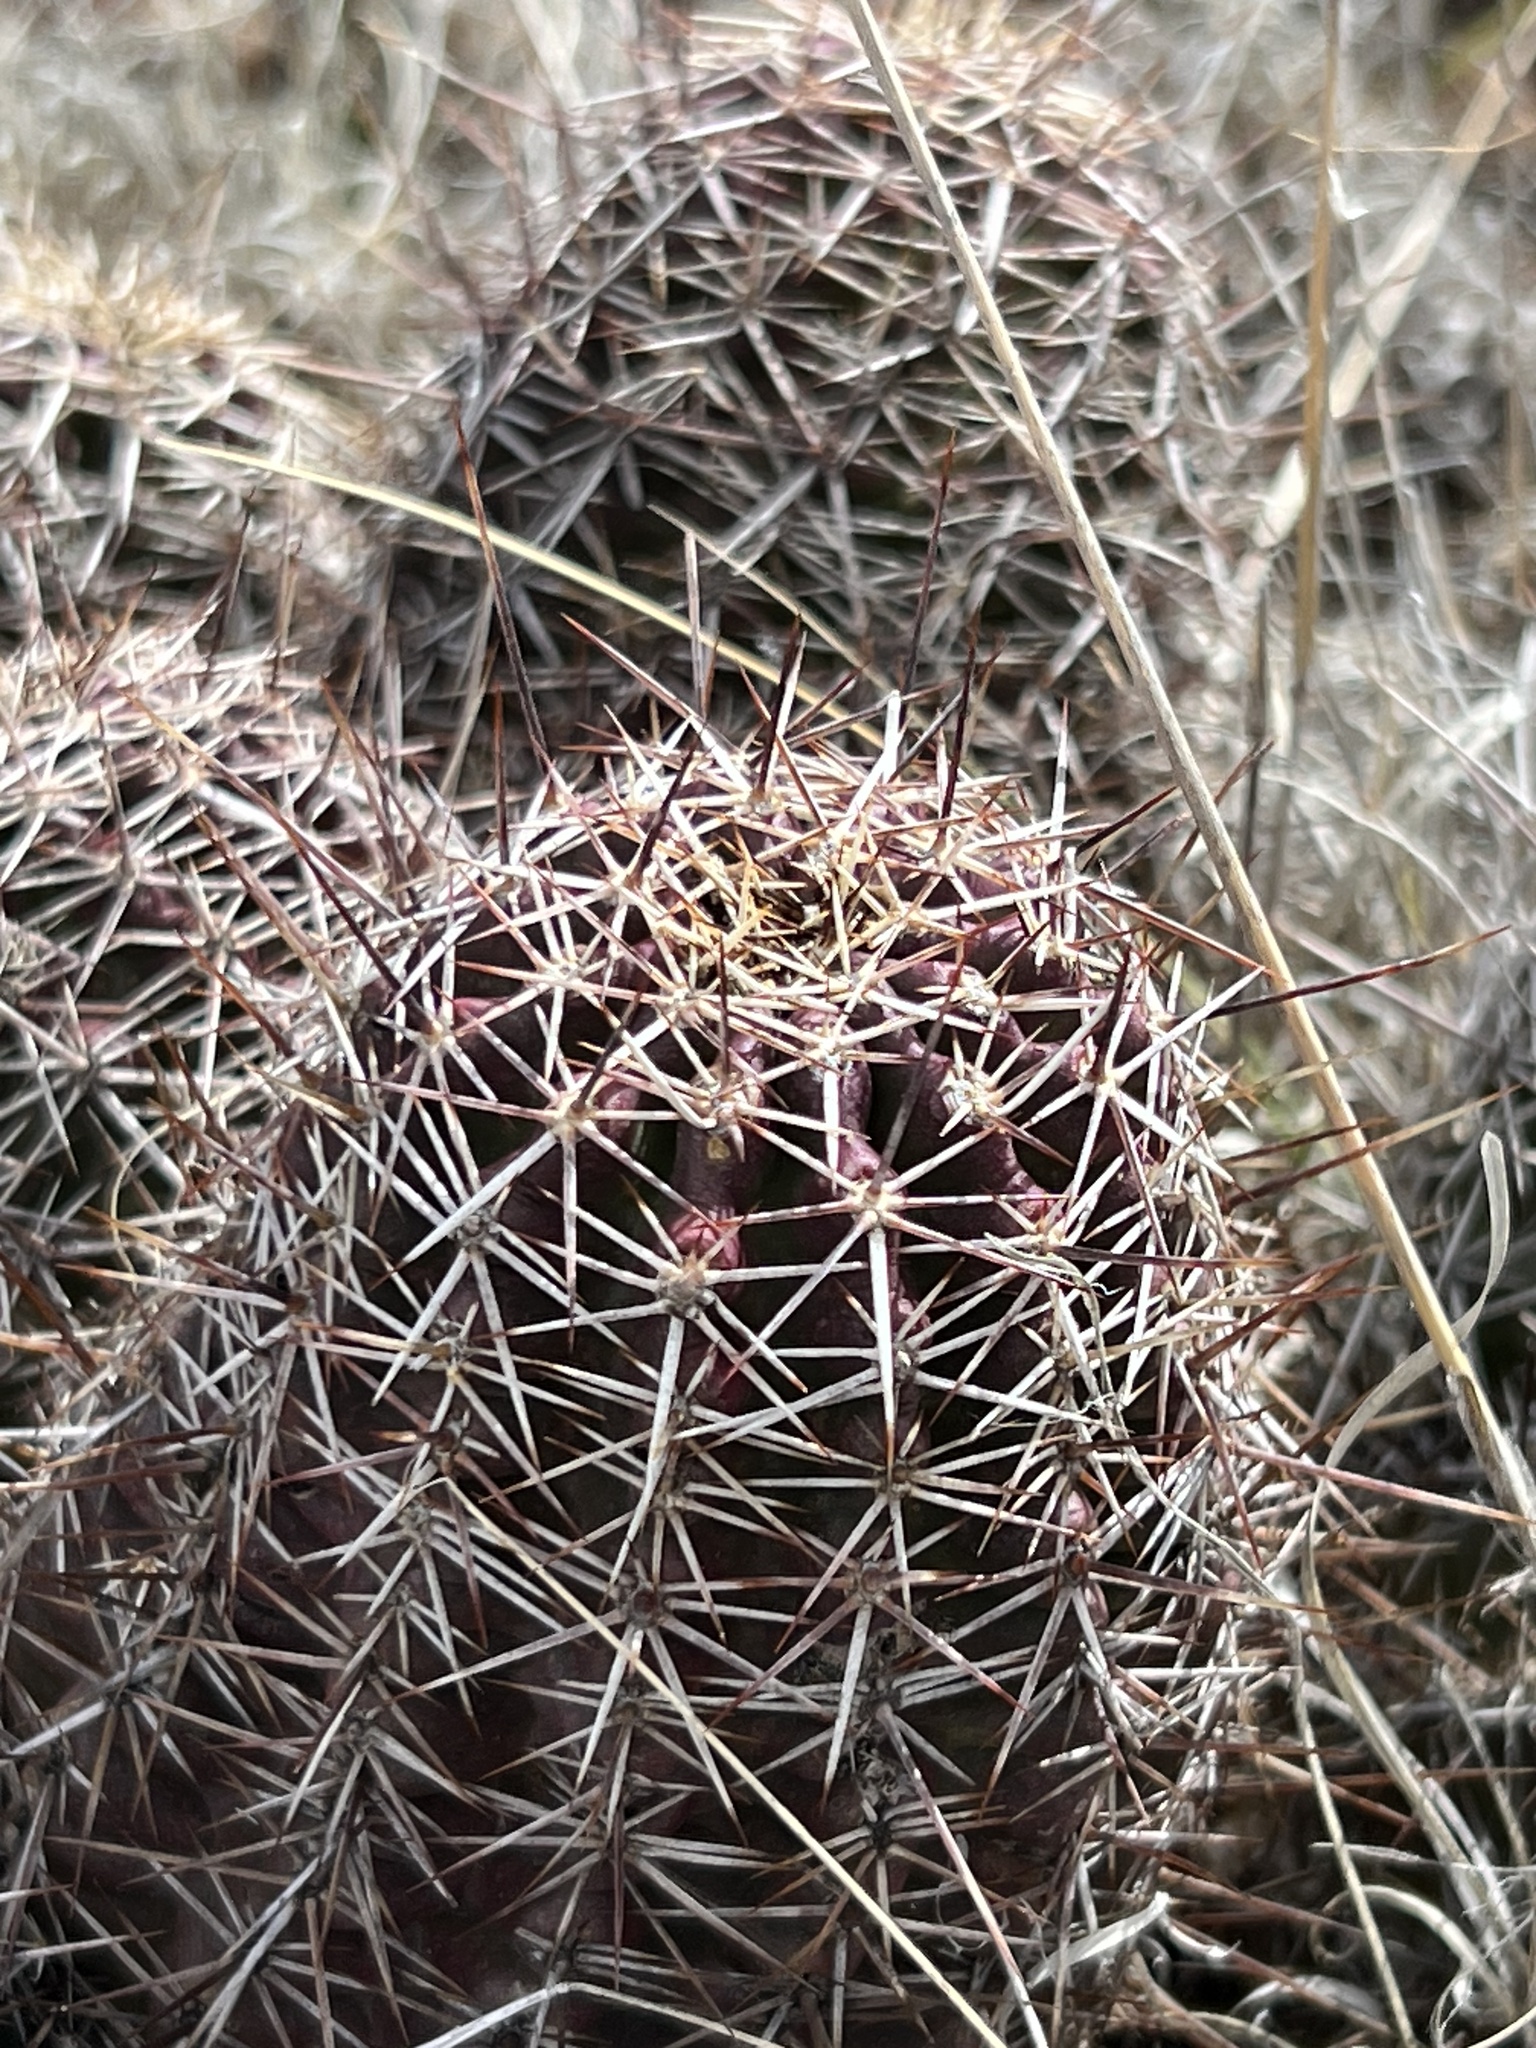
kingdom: Plantae
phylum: Tracheophyta
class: Magnoliopsida
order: Caryophyllales
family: Cactaceae
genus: Echinocereus
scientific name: Echinocereus fendleri
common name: Fendler's hedgehog cactus
